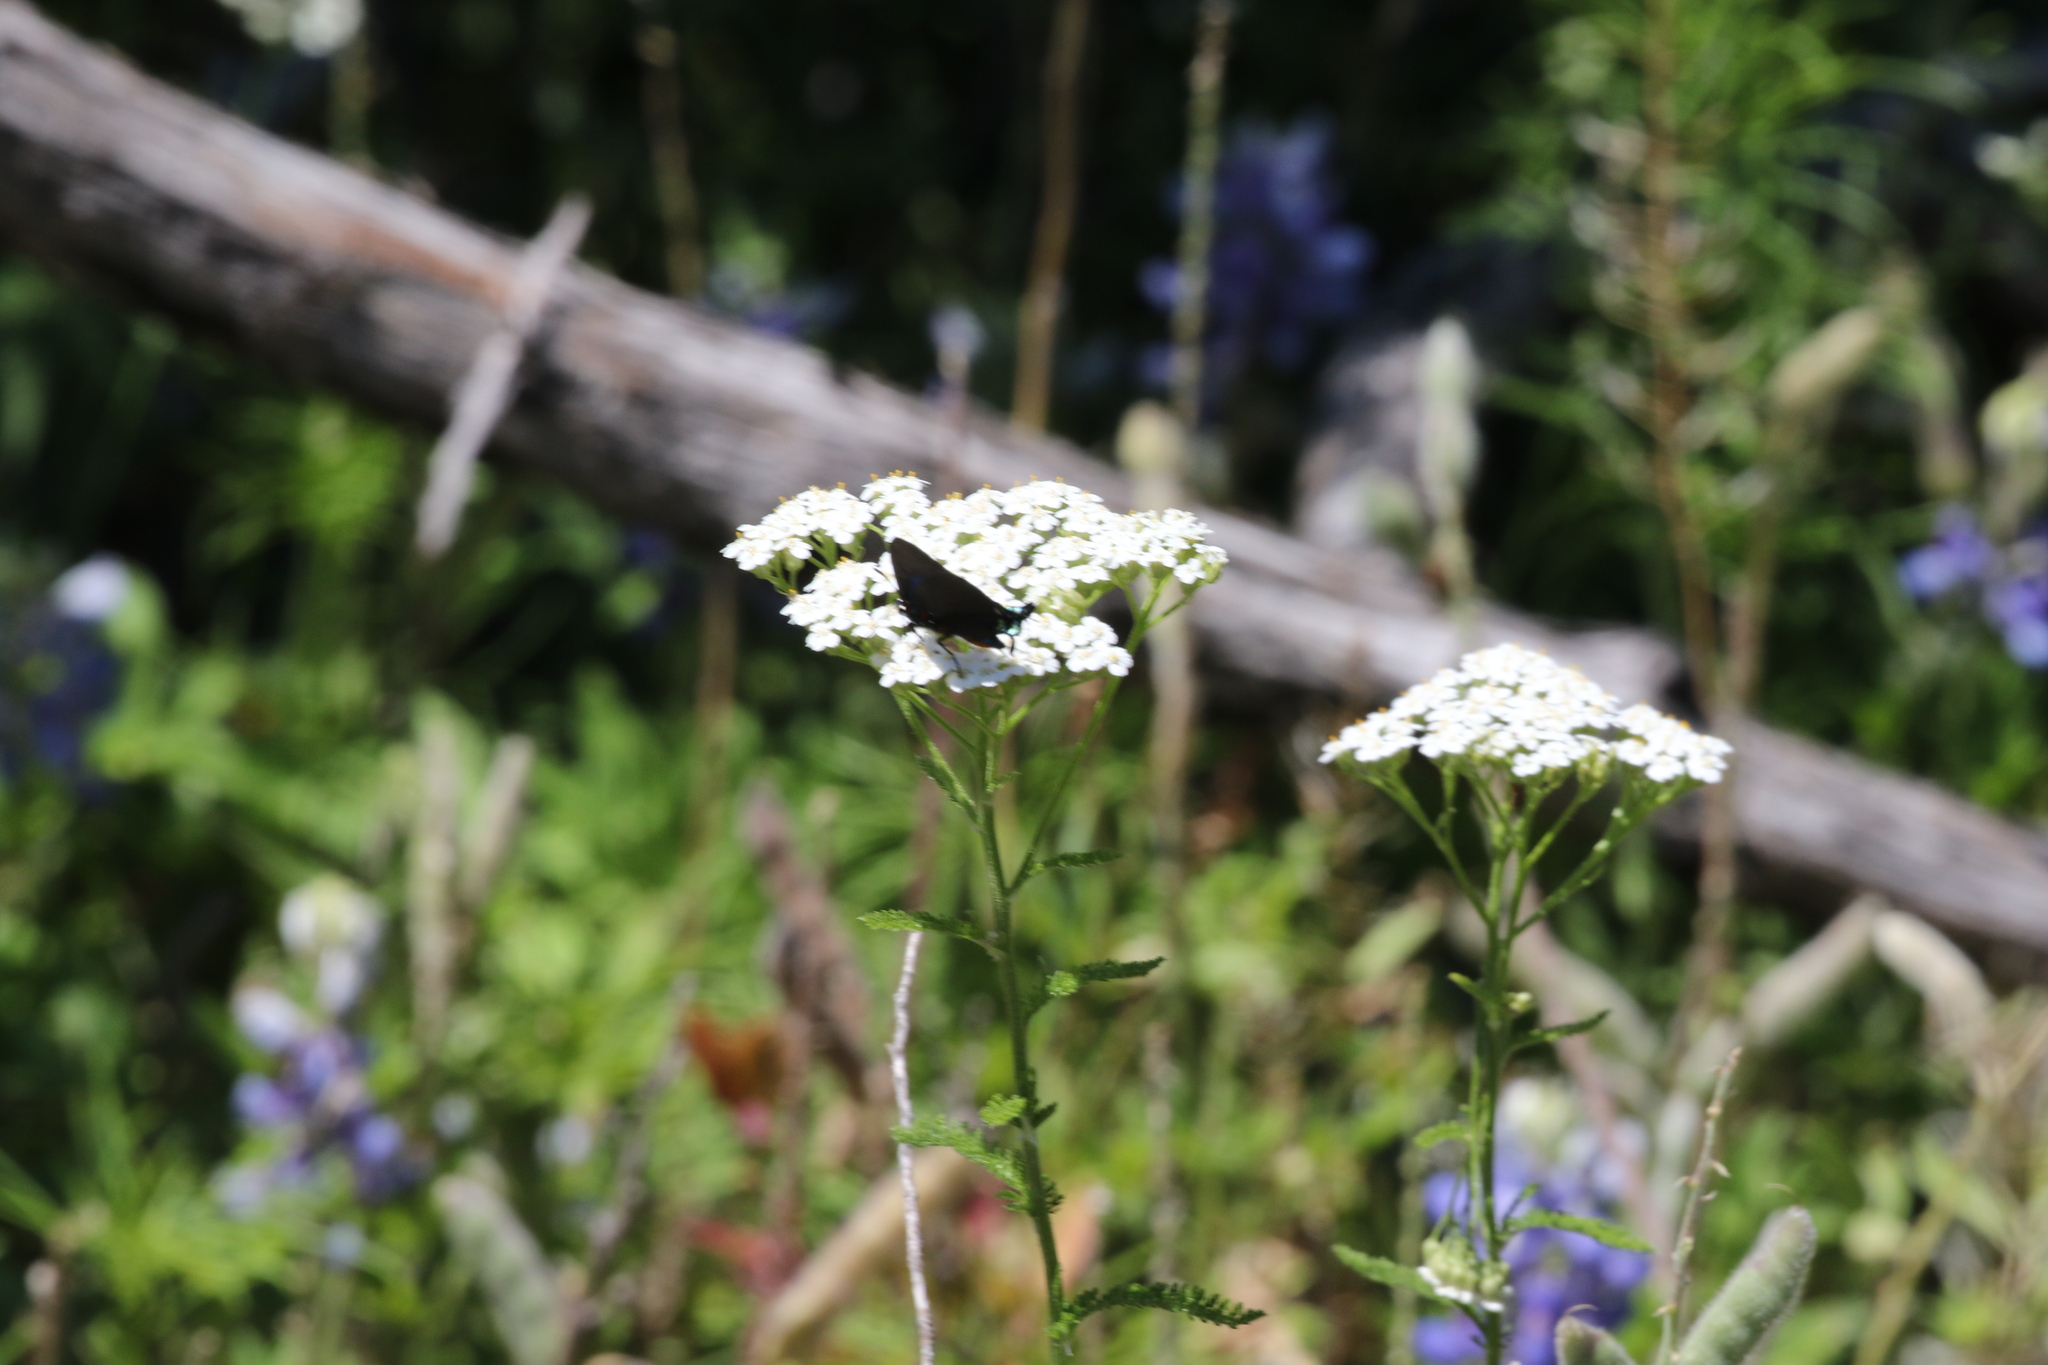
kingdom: Animalia
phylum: Arthropoda
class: Insecta
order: Lepidoptera
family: Lycaenidae
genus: Atlides
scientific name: Atlides halesus
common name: Great purple hairstreak
